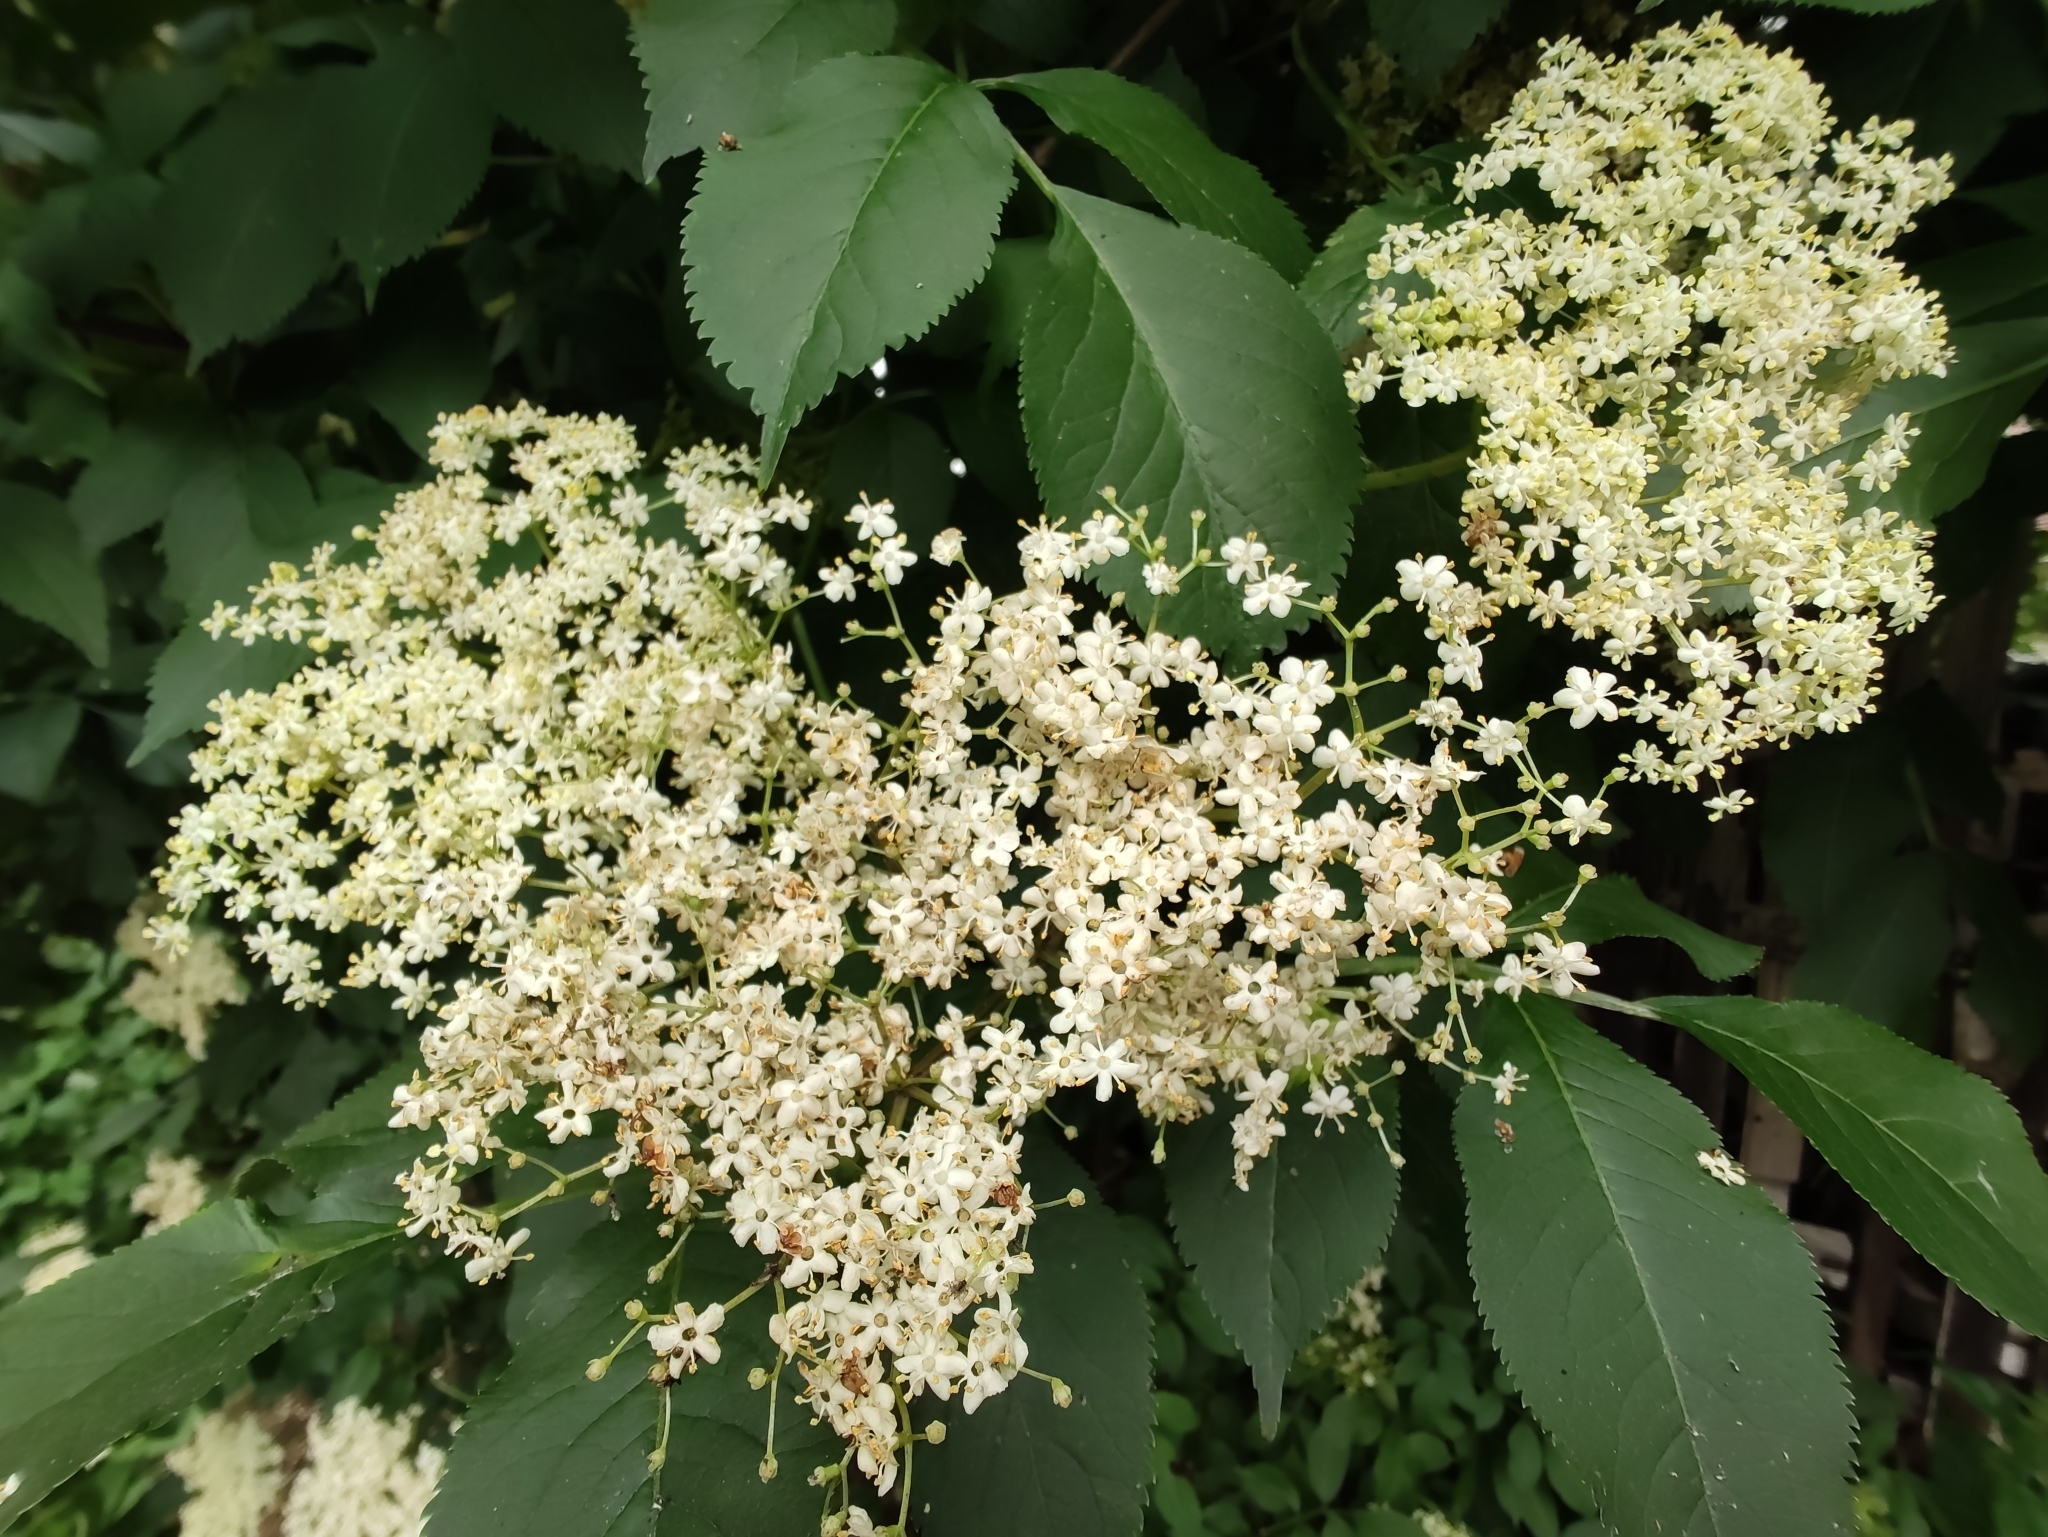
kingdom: Plantae
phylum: Tracheophyta
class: Magnoliopsida
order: Dipsacales
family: Viburnaceae
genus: Sambucus
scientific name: Sambucus nigra
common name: Elder
